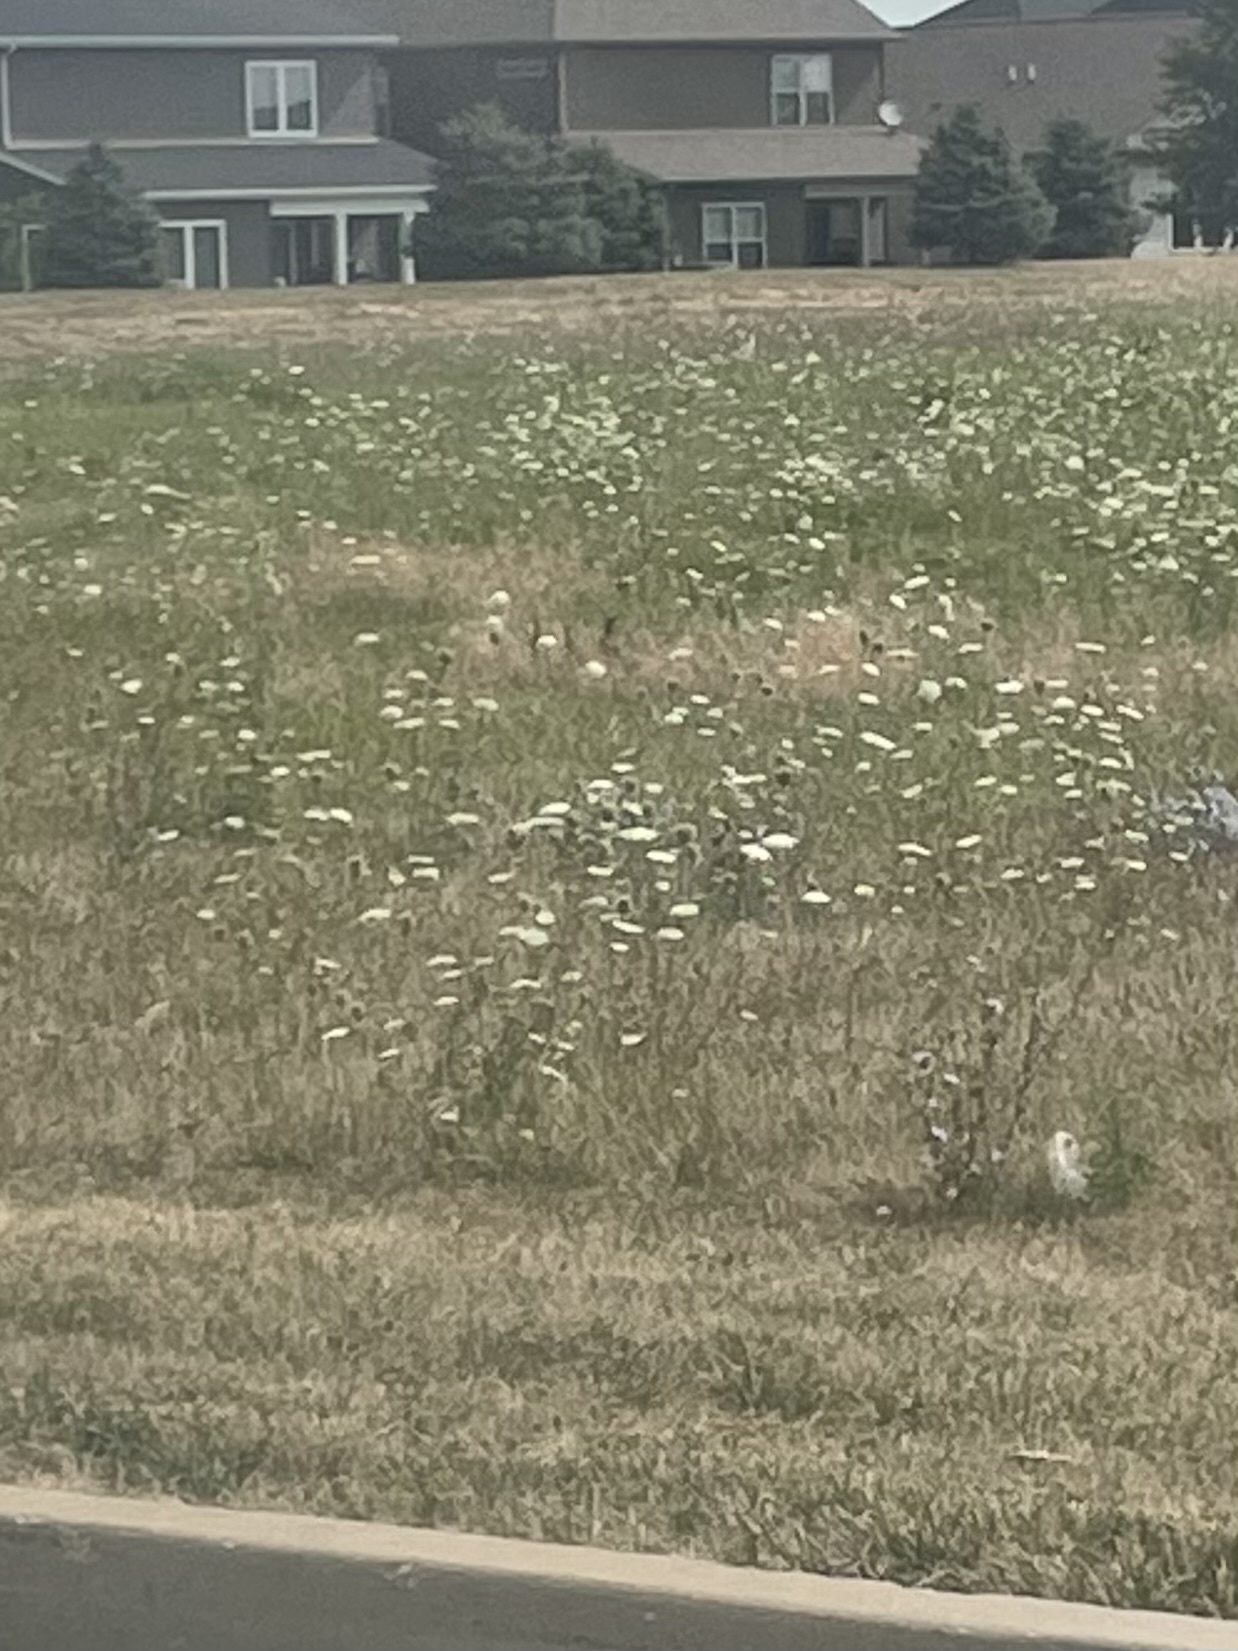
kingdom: Plantae
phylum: Tracheophyta
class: Magnoliopsida
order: Apiales
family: Apiaceae
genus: Daucus
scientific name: Daucus carota
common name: Wild carrot
